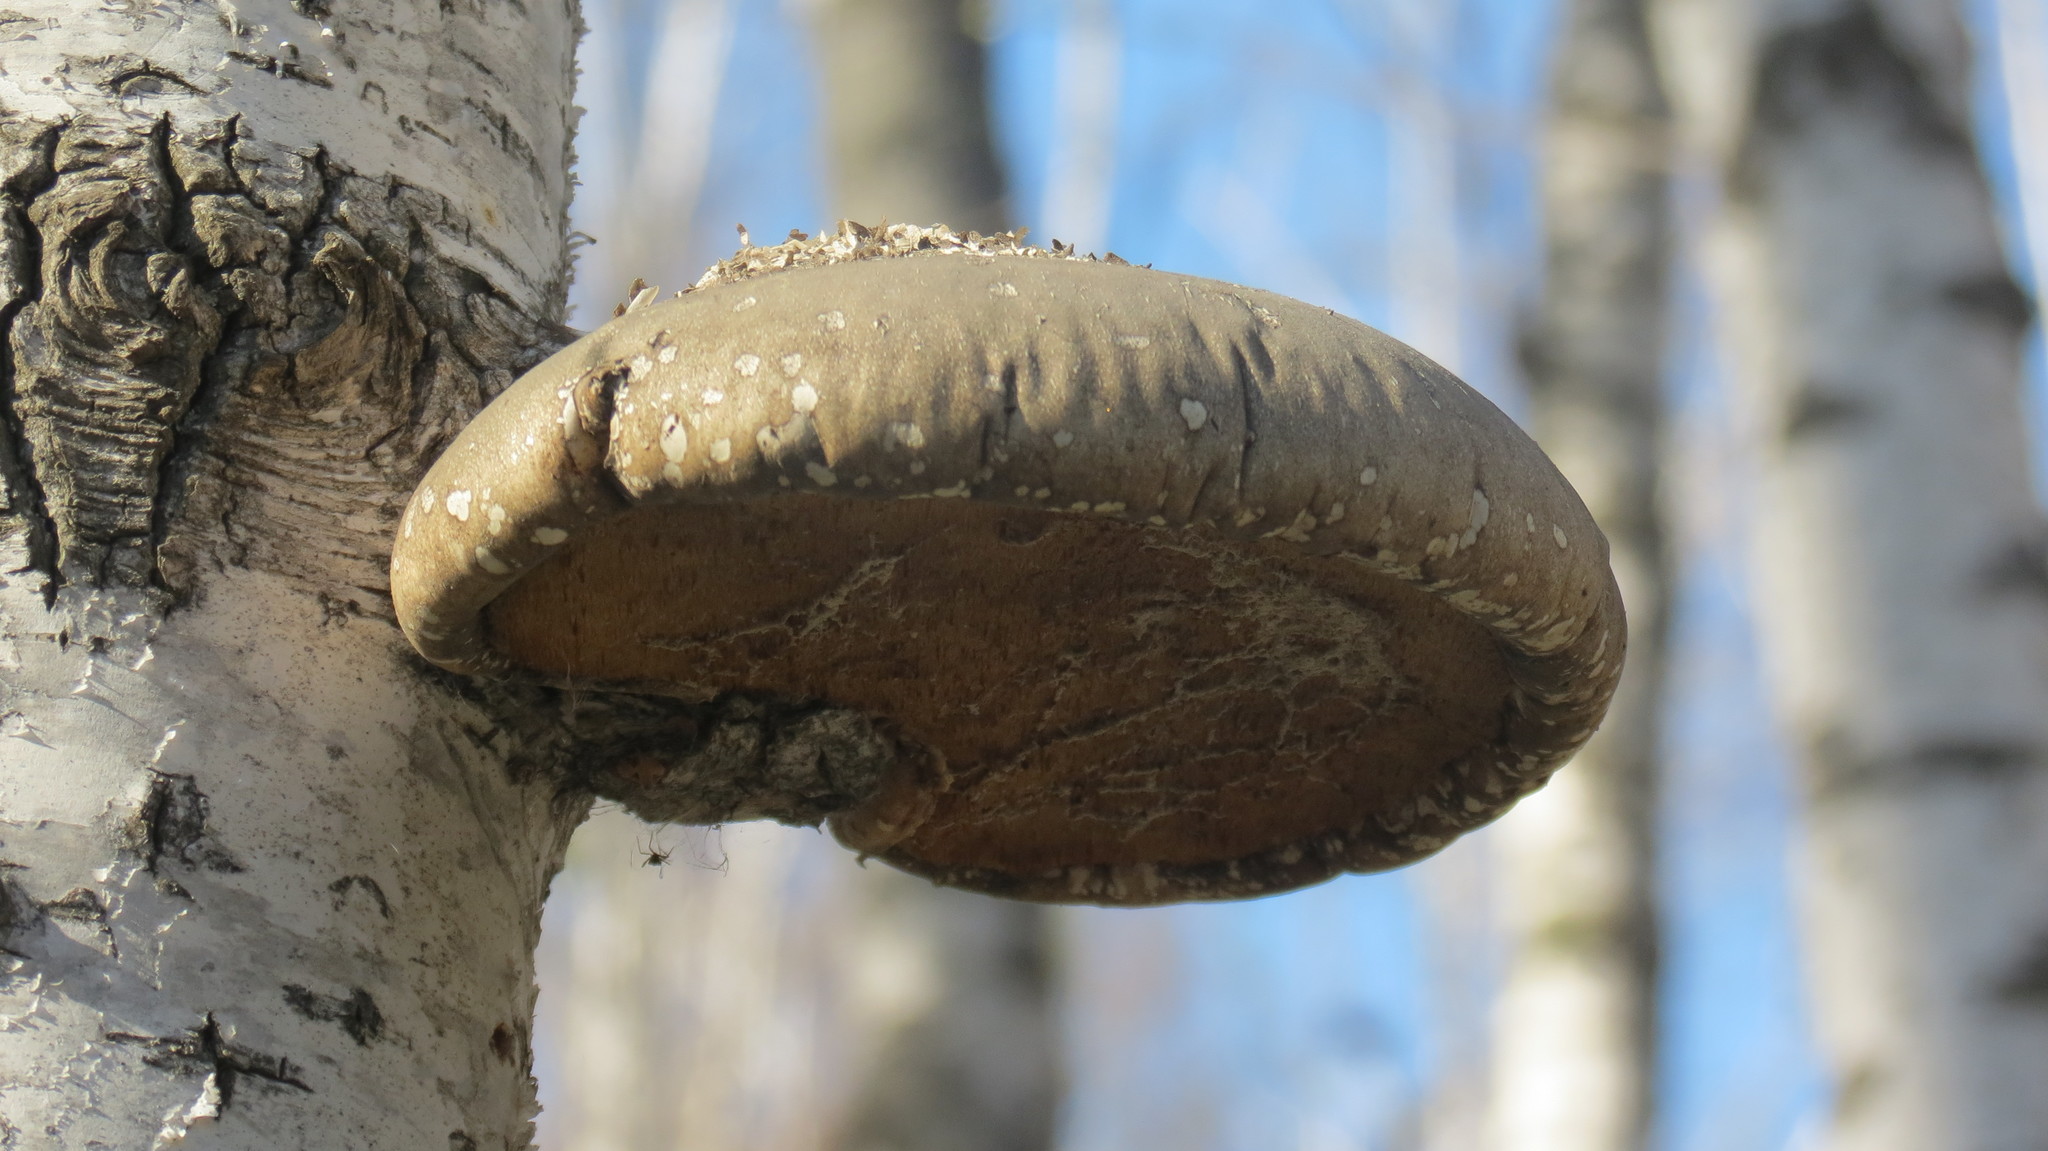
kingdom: Fungi
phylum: Basidiomycota
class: Agaricomycetes
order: Polyporales
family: Fomitopsidaceae
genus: Fomitopsis
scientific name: Fomitopsis betulina
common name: Birch polypore
